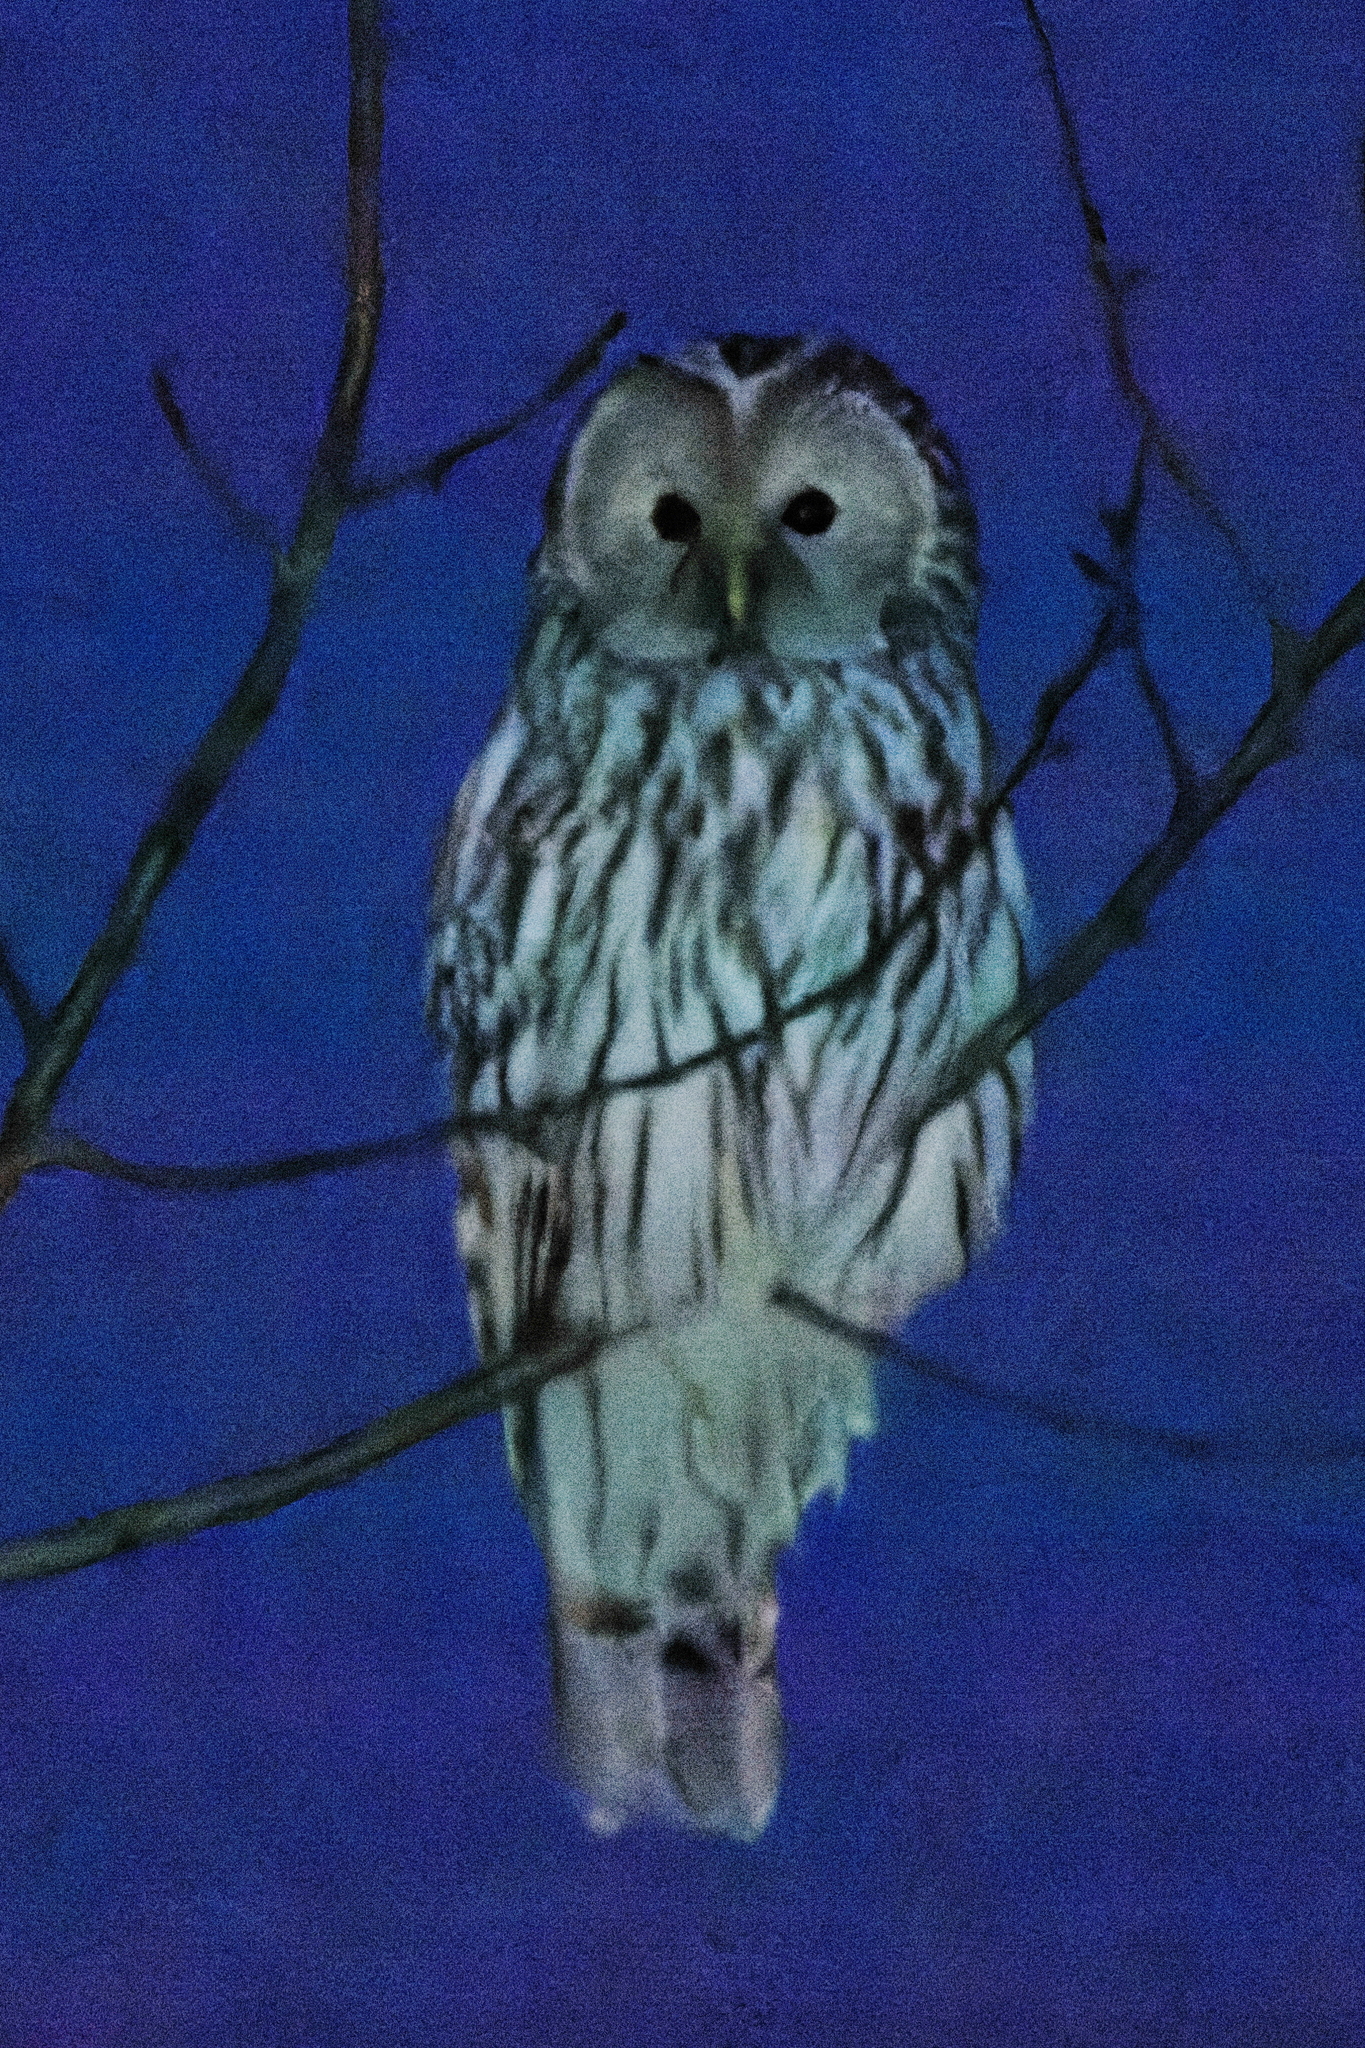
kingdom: Animalia
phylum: Chordata
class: Aves
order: Strigiformes
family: Strigidae
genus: Strix
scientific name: Strix uralensis
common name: Ural owl
